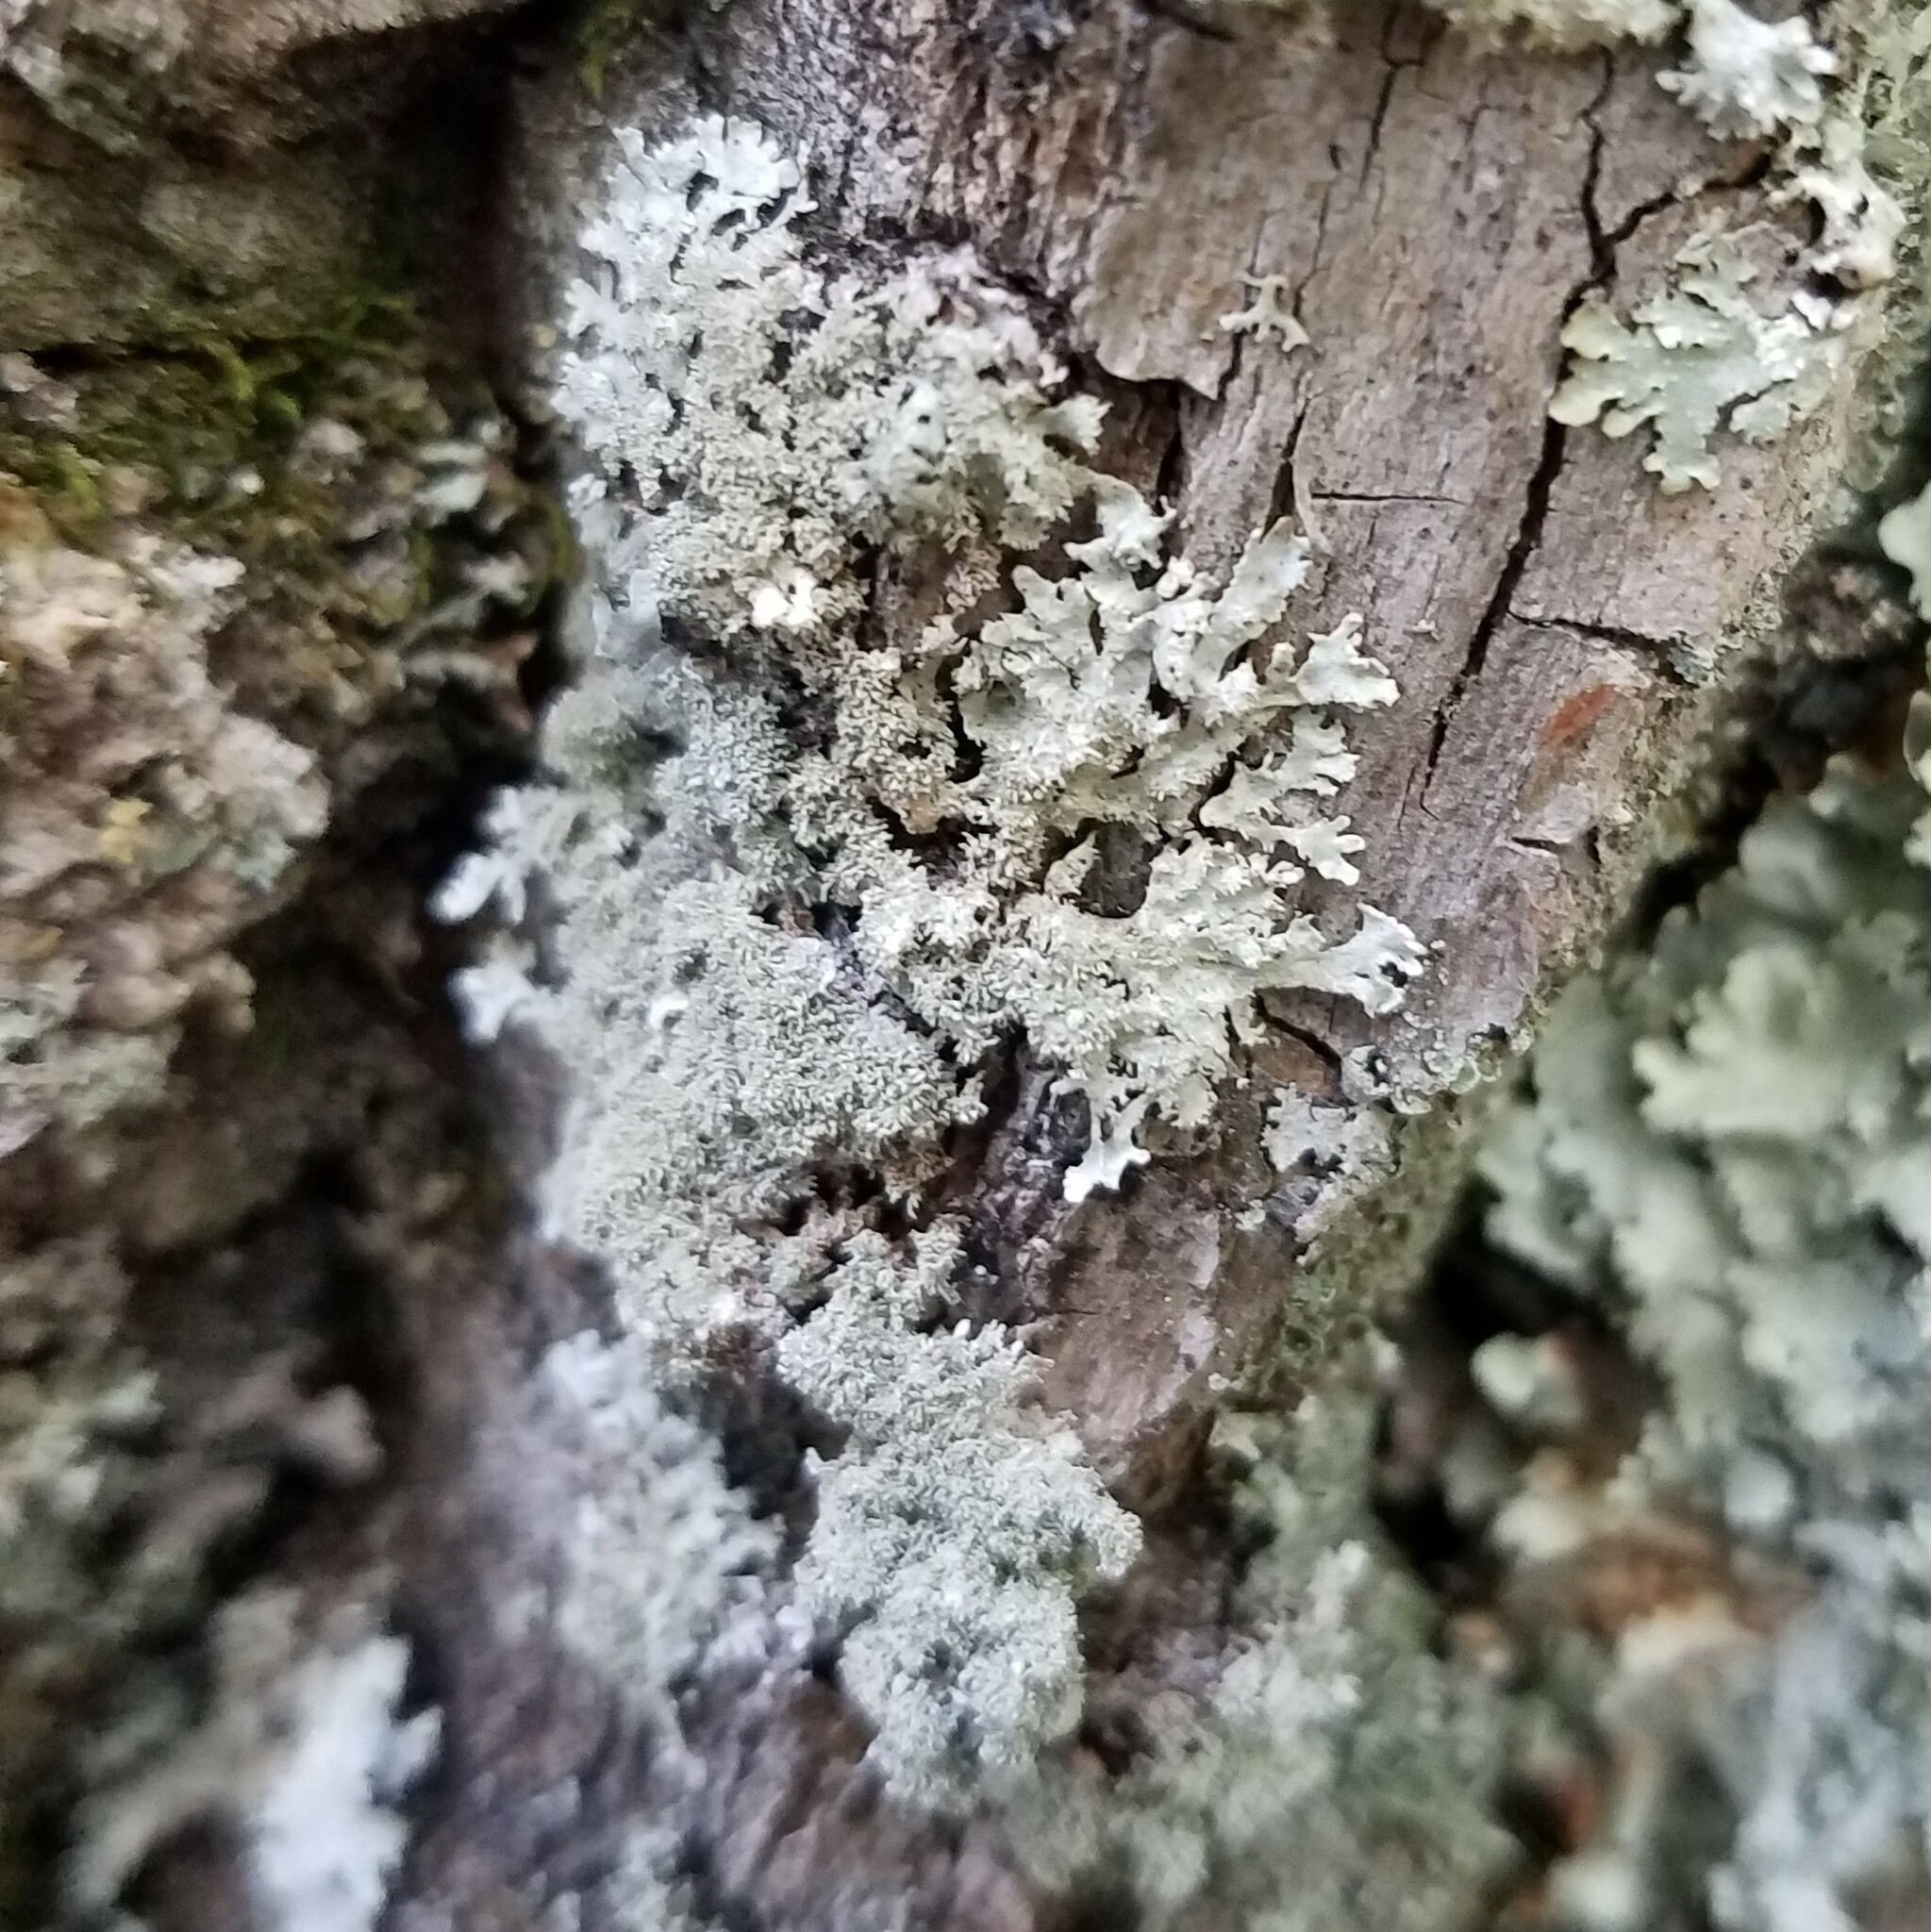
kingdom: Fungi
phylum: Ascomycota
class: Lecanoromycetes
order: Lecanorales
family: Parmeliaceae
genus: Imshaugia
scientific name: Imshaugia aleurites
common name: Salted starburst lichen
